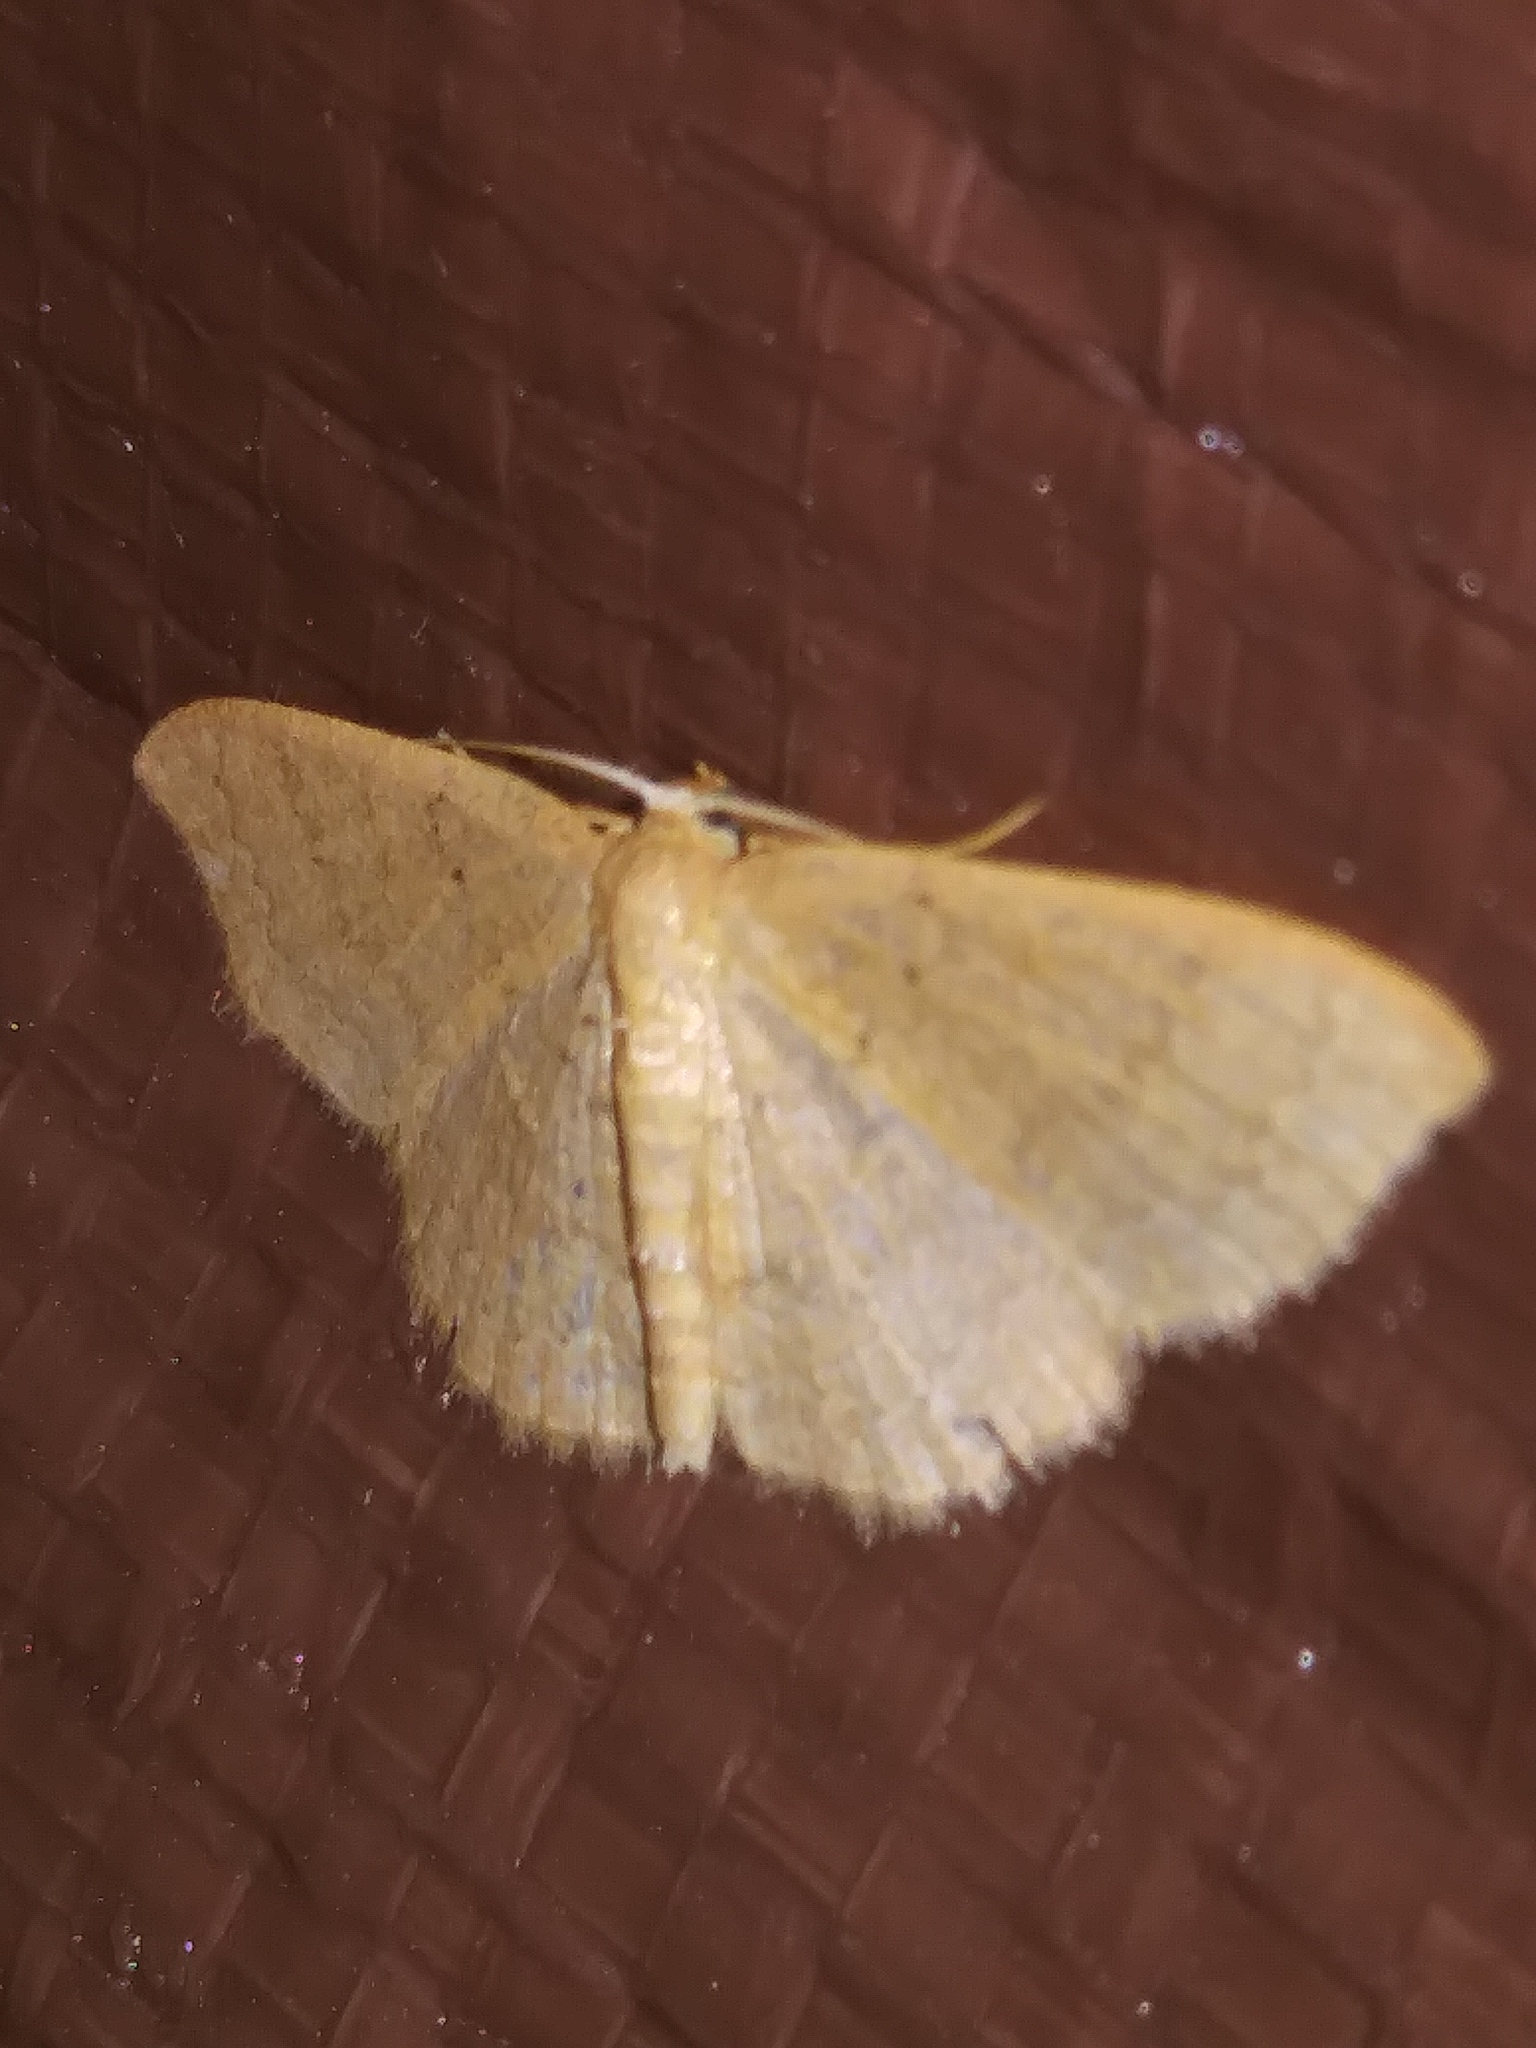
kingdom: Animalia
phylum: Arthropoda
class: Insecta
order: Lepidoptera
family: Geometridae
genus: Pleuroprucha
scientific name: Pleuroprucha insulsaria
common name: Common tan wave
